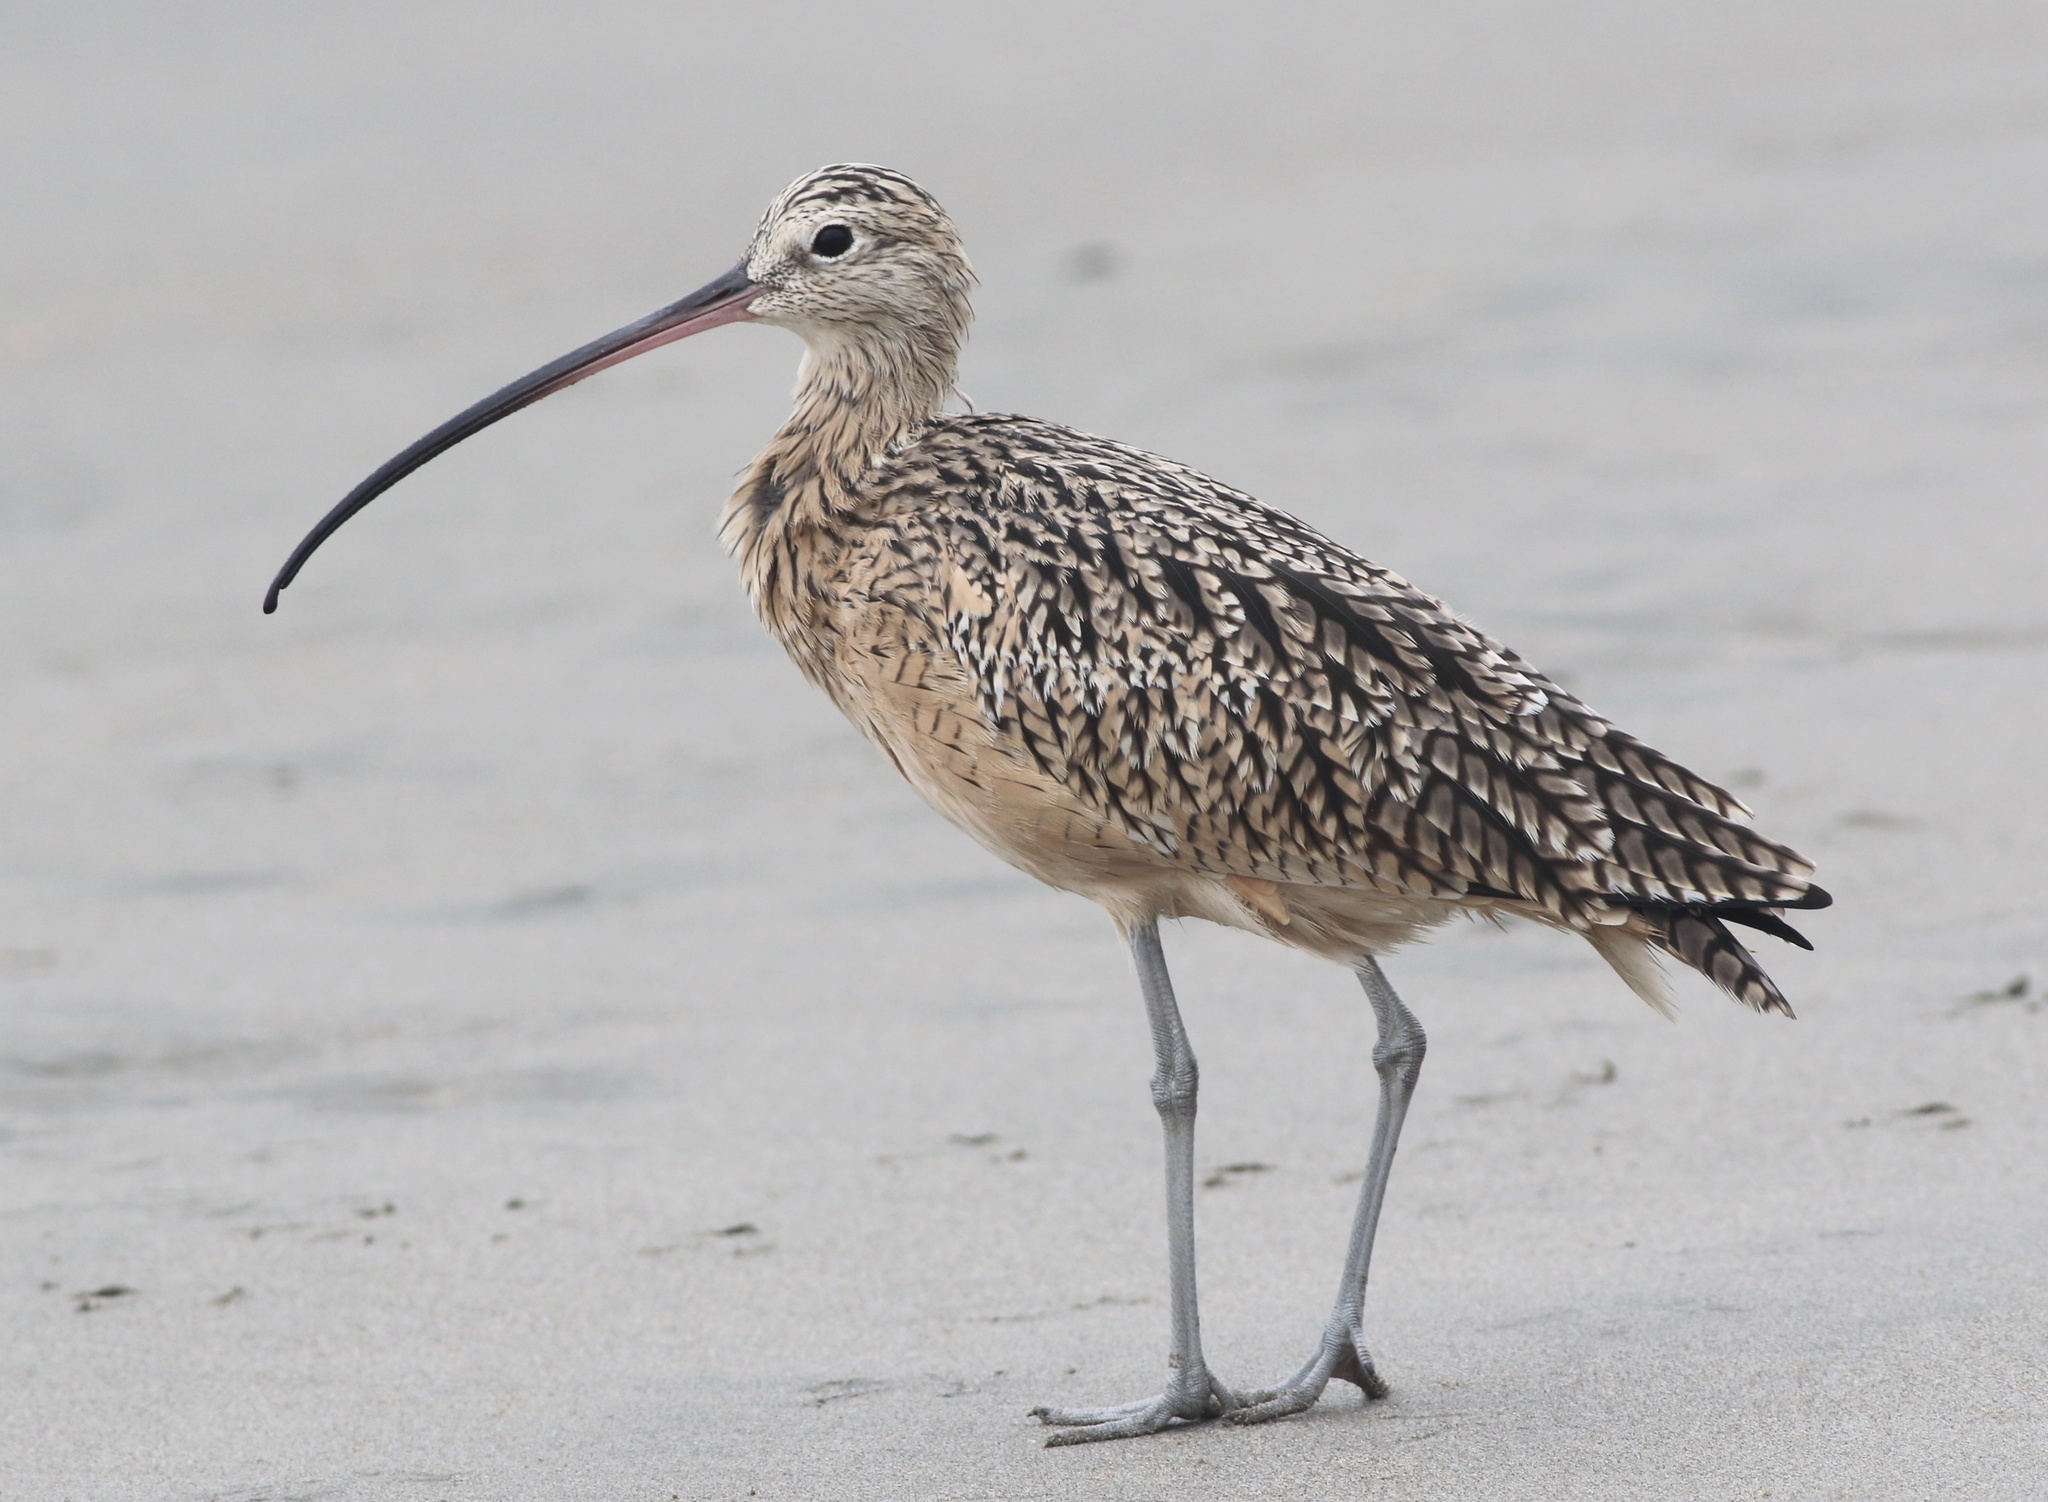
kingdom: Animalia
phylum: Chordata
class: Aves
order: Charadriiformes
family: Scolopacidae
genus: Numenius
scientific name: Numenius americanus
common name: Long-billed curlew
